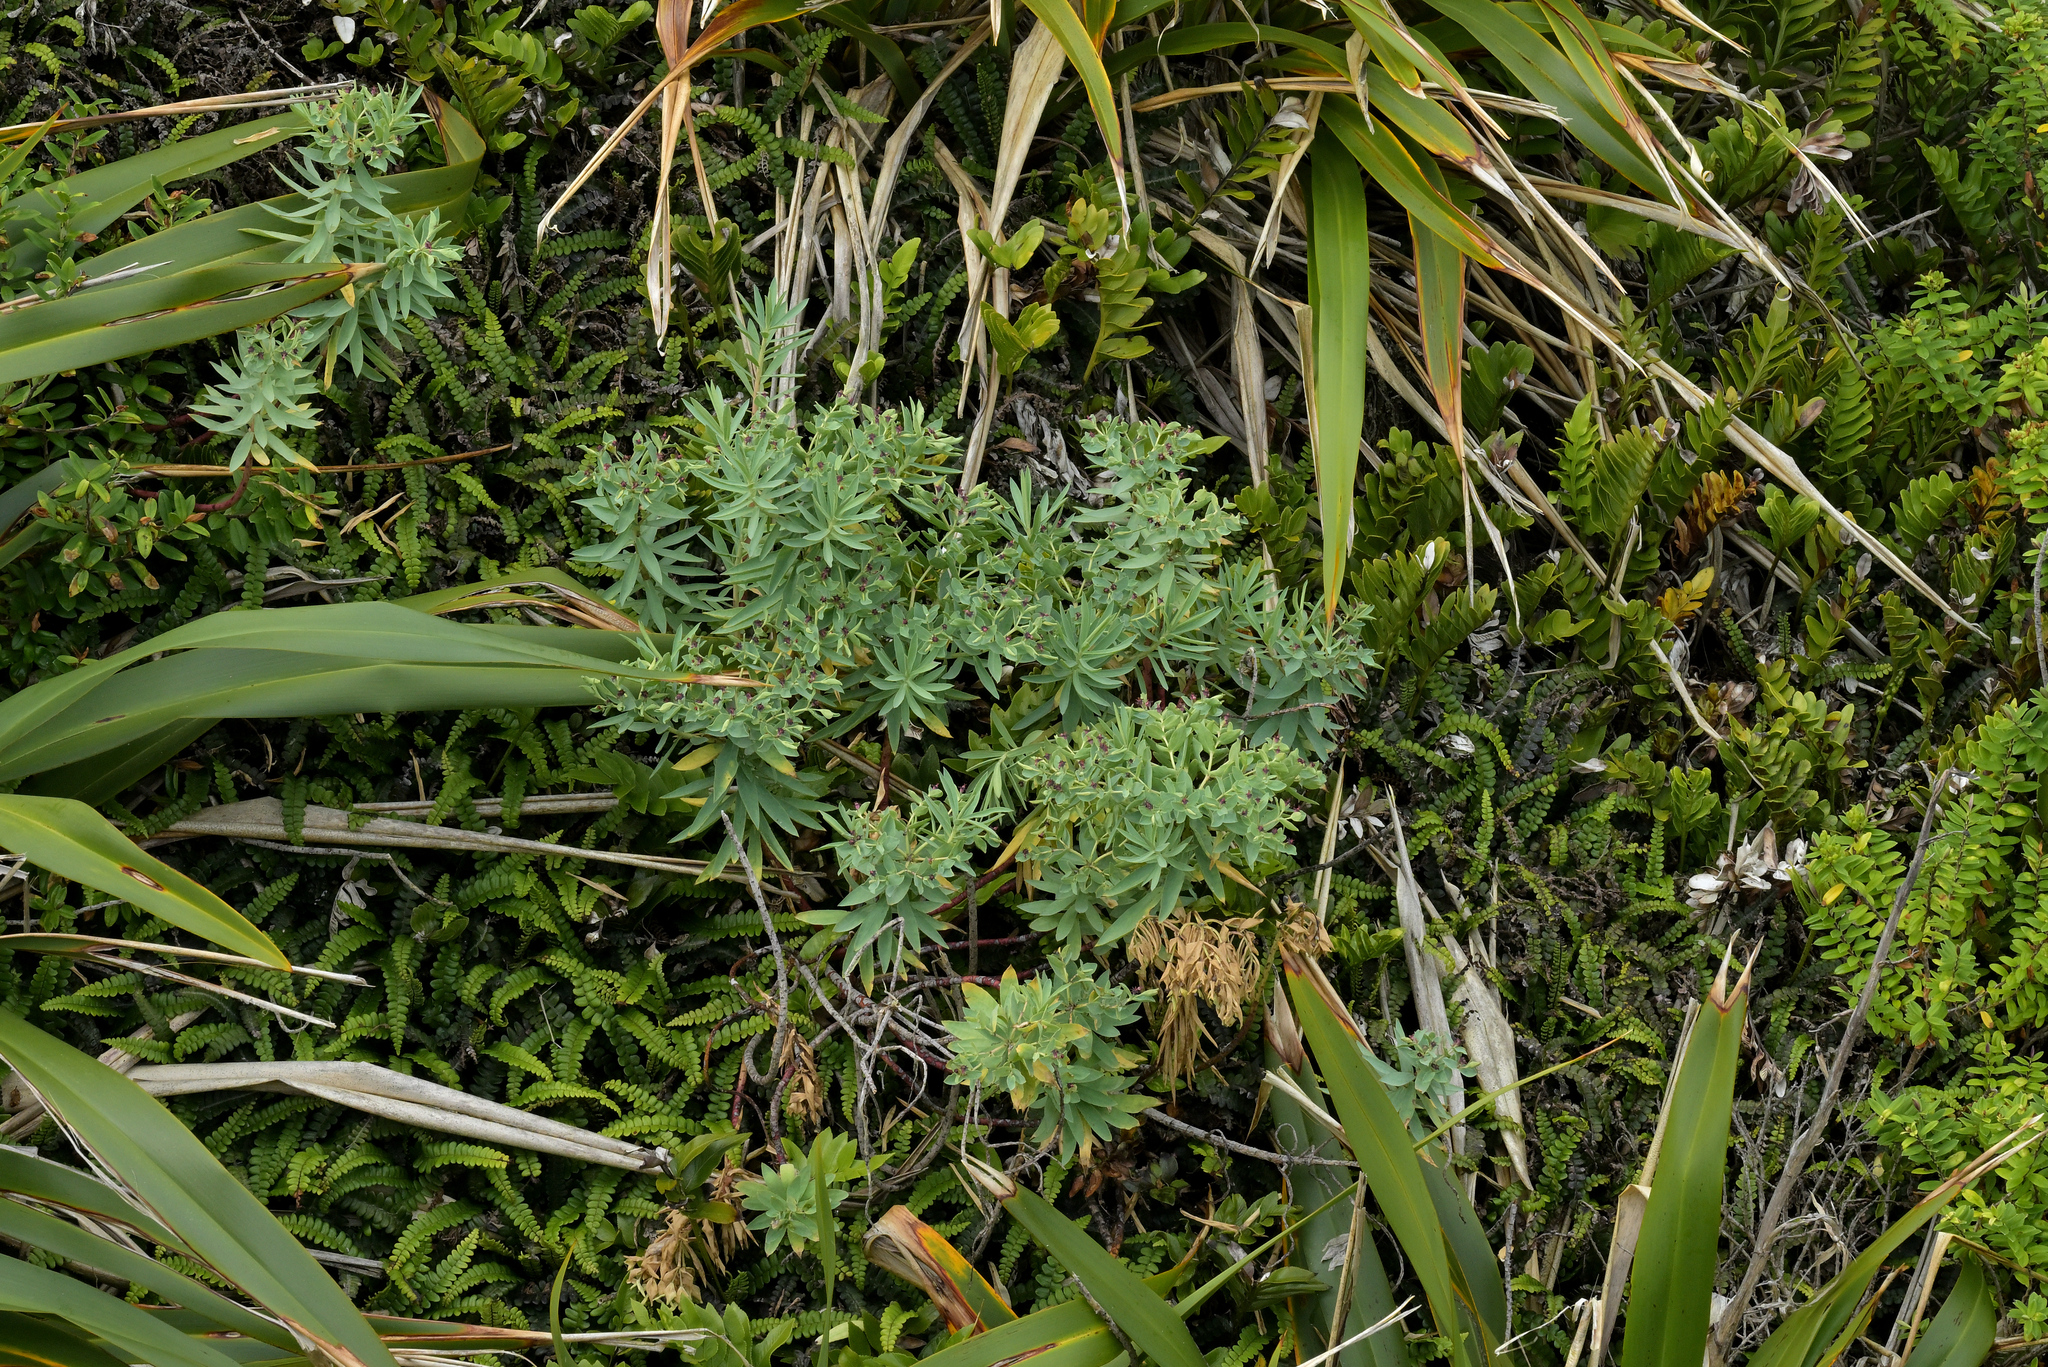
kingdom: Plantae
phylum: Tracheophyta
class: Magnoliopsida
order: Malpighiales
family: Euphorbiaceae
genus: Euphorbia
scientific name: Euphorbia glauca
